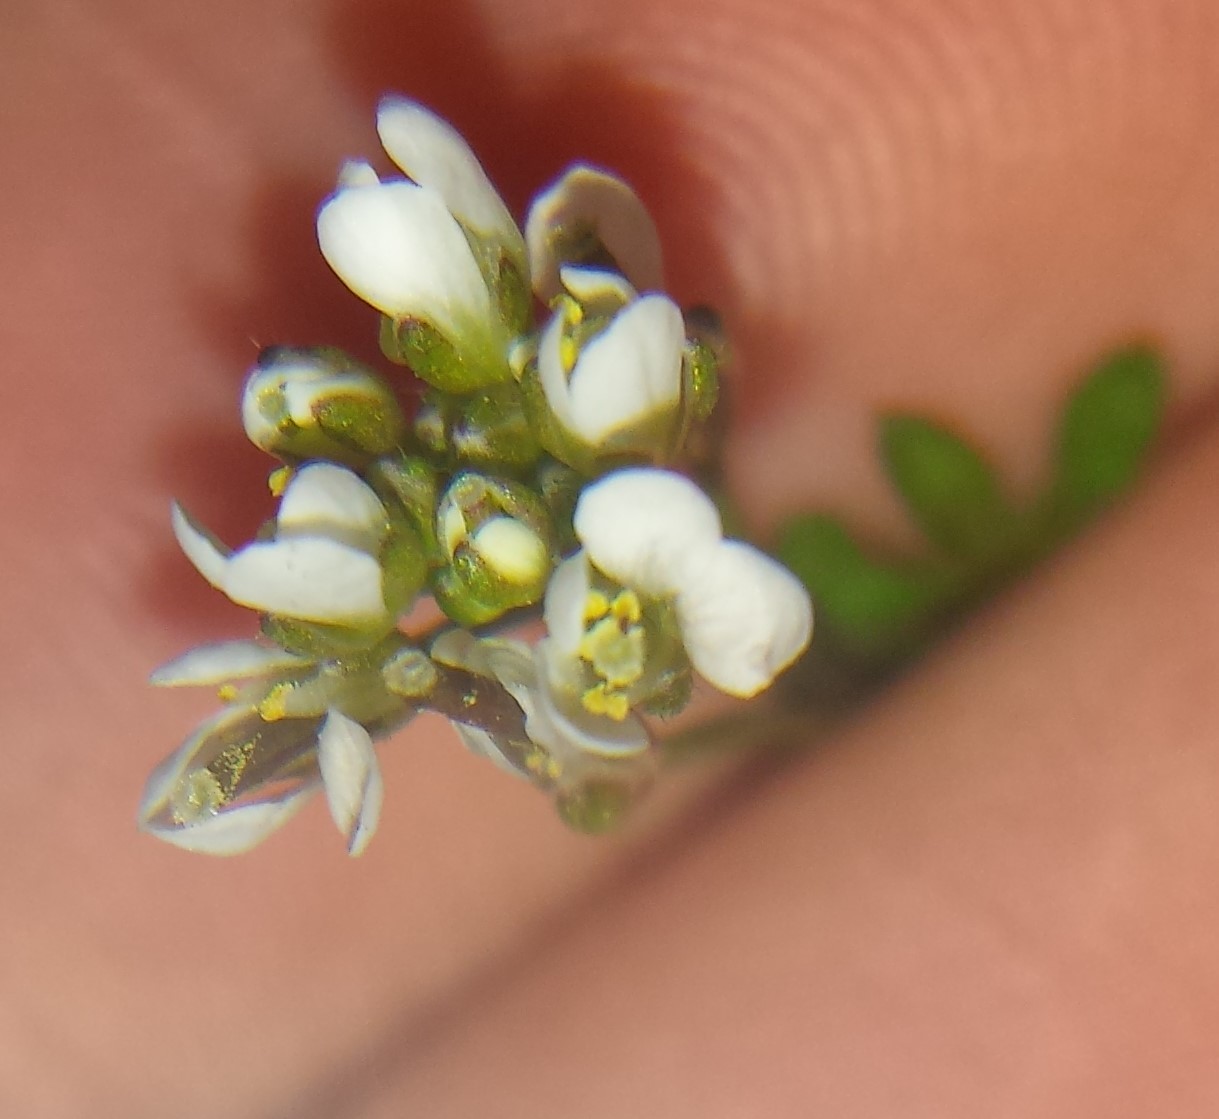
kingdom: Plantae
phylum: Tracheophyta
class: Magnoliopsida
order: Brassicales
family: Brassicaceae
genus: Cardamine
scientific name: Cardamine hirsuta
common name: Hairy bittercress
